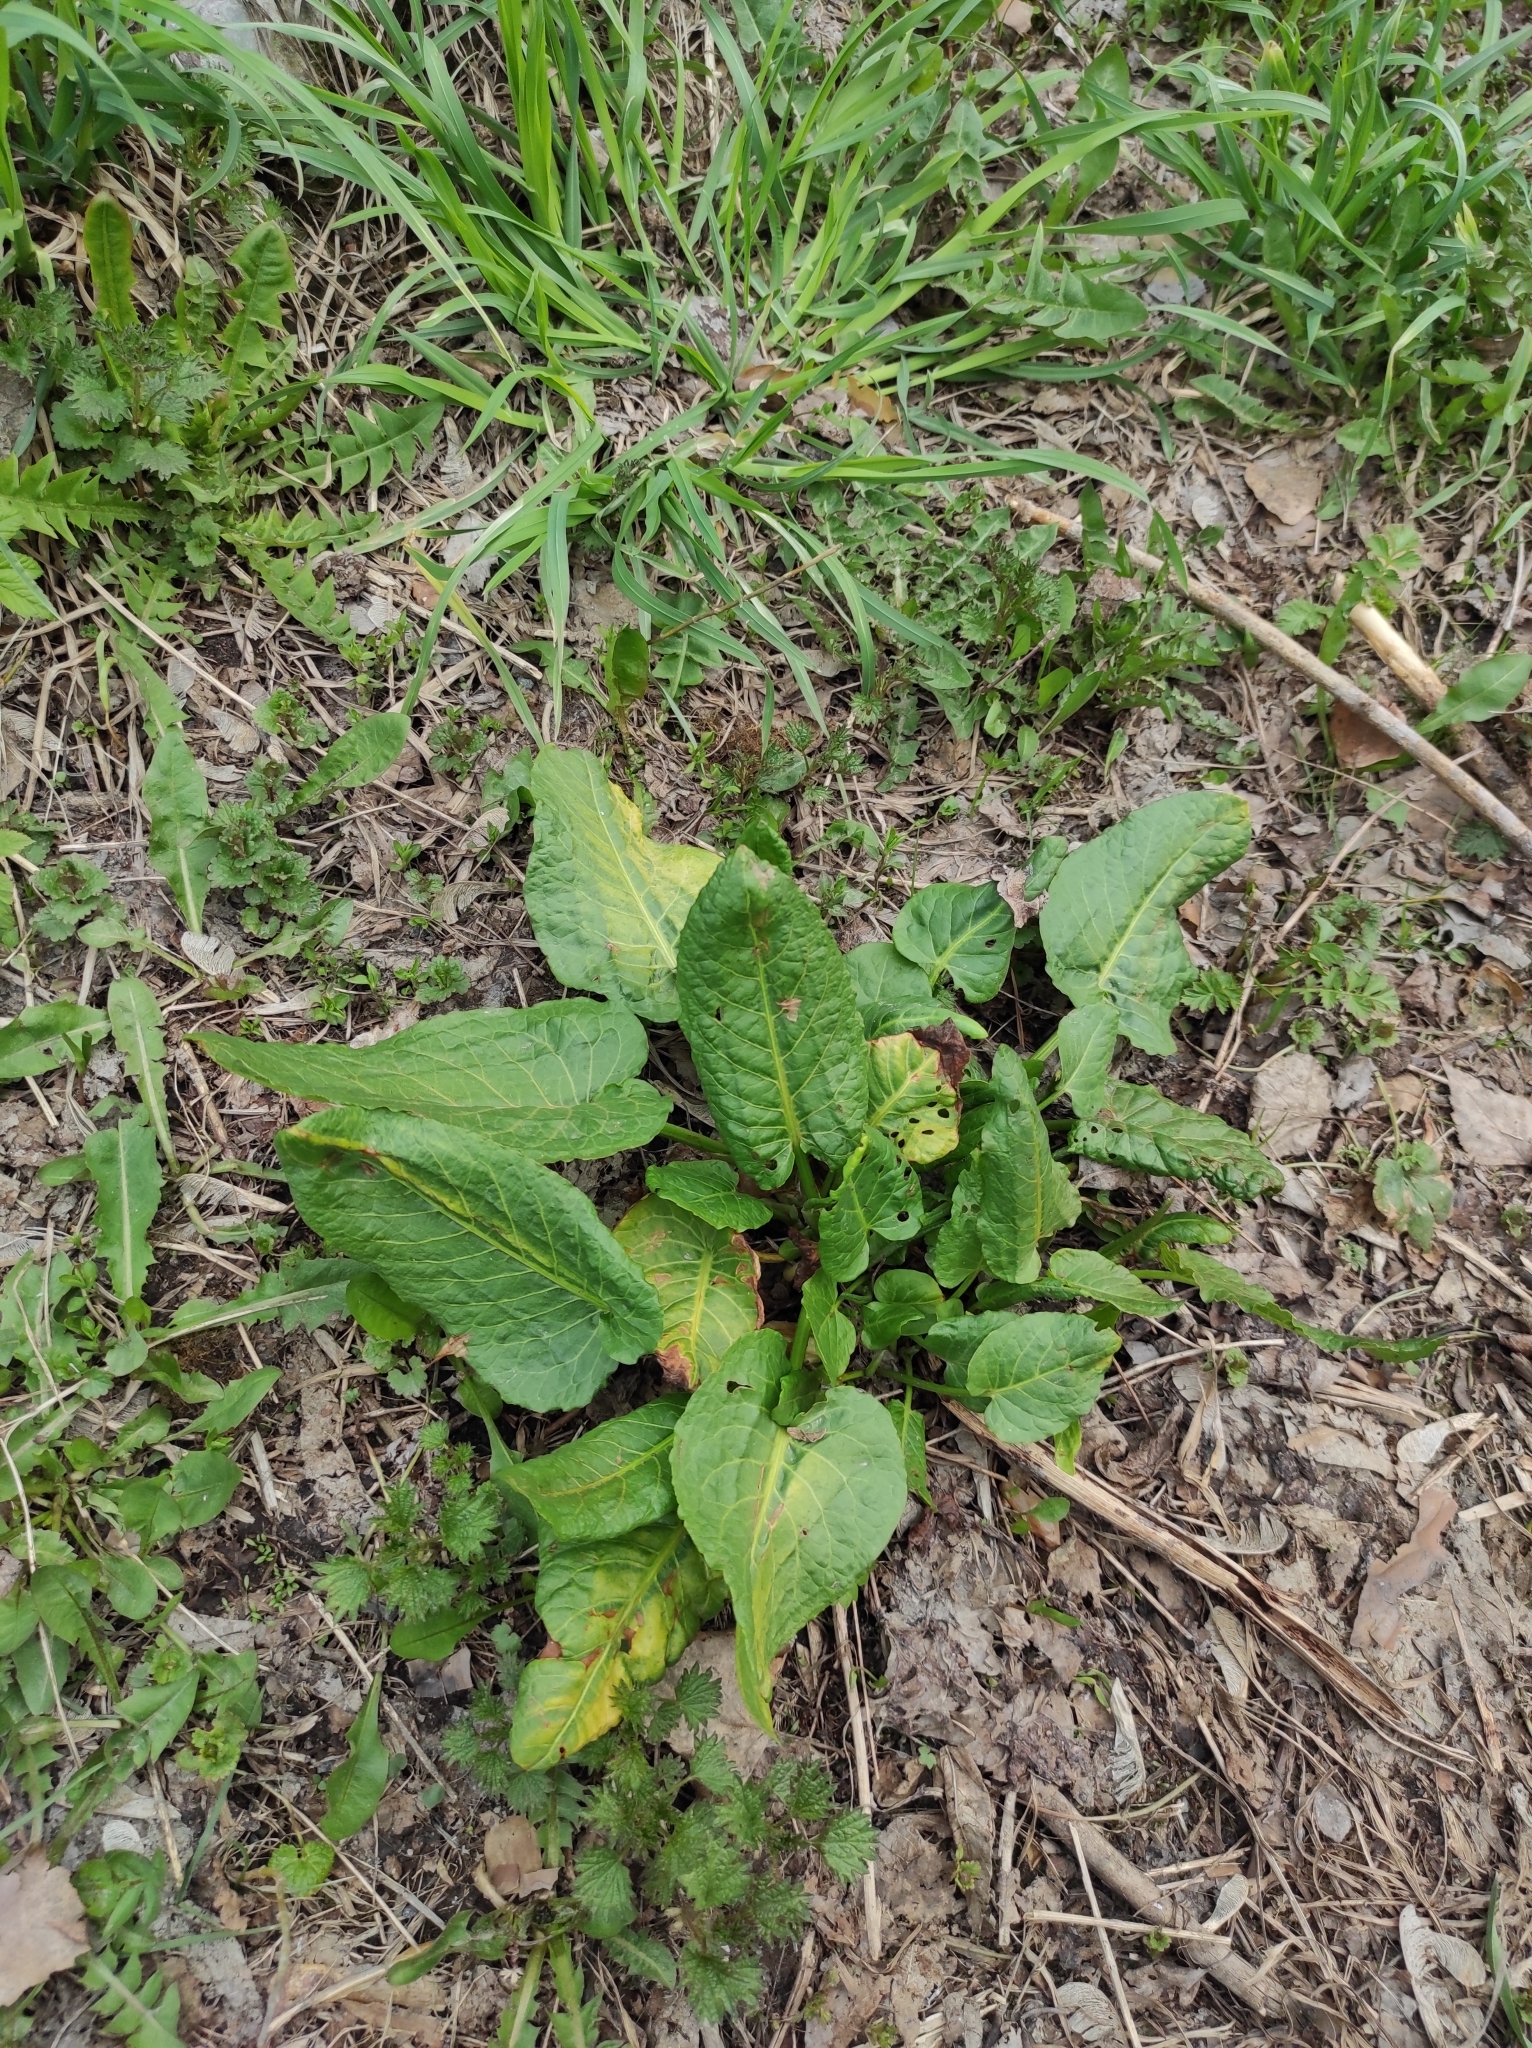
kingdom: Plantae
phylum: Tracheophyta
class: Magnoliopsida
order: Caryophyllales
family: Polygonaceae
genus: Rumex
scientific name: Rumex obtusifolius
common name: Bitter dock
